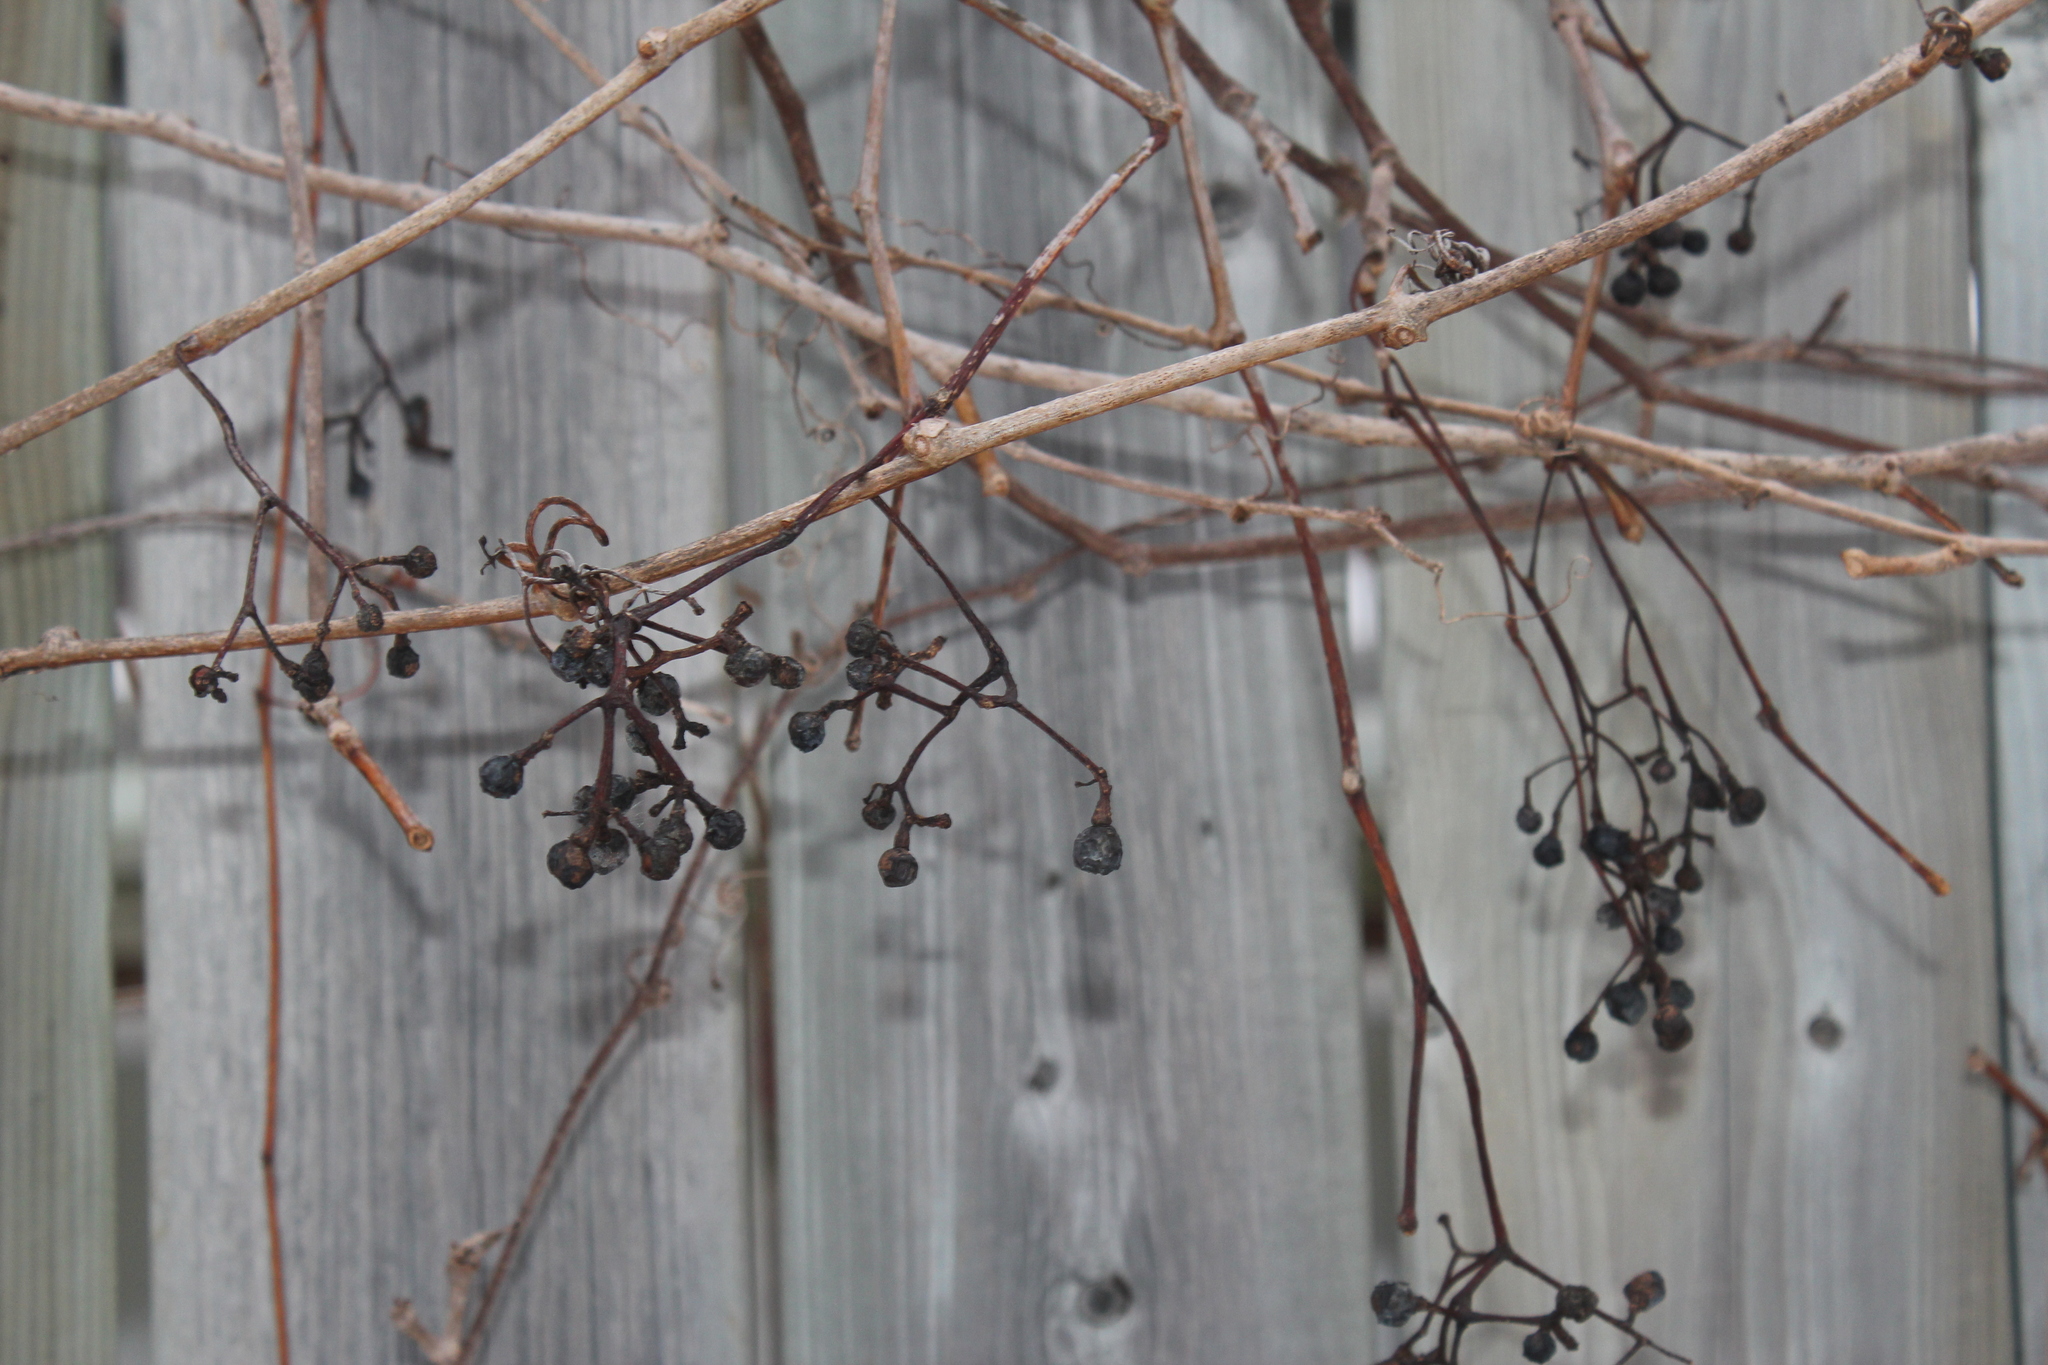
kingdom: Plantae
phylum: Tracheophyta
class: Magnoliopsida
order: Vitales
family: Vitaceae
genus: Parthenocissus
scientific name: Parthenocissus quinquefolia
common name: Virginia-creeper
